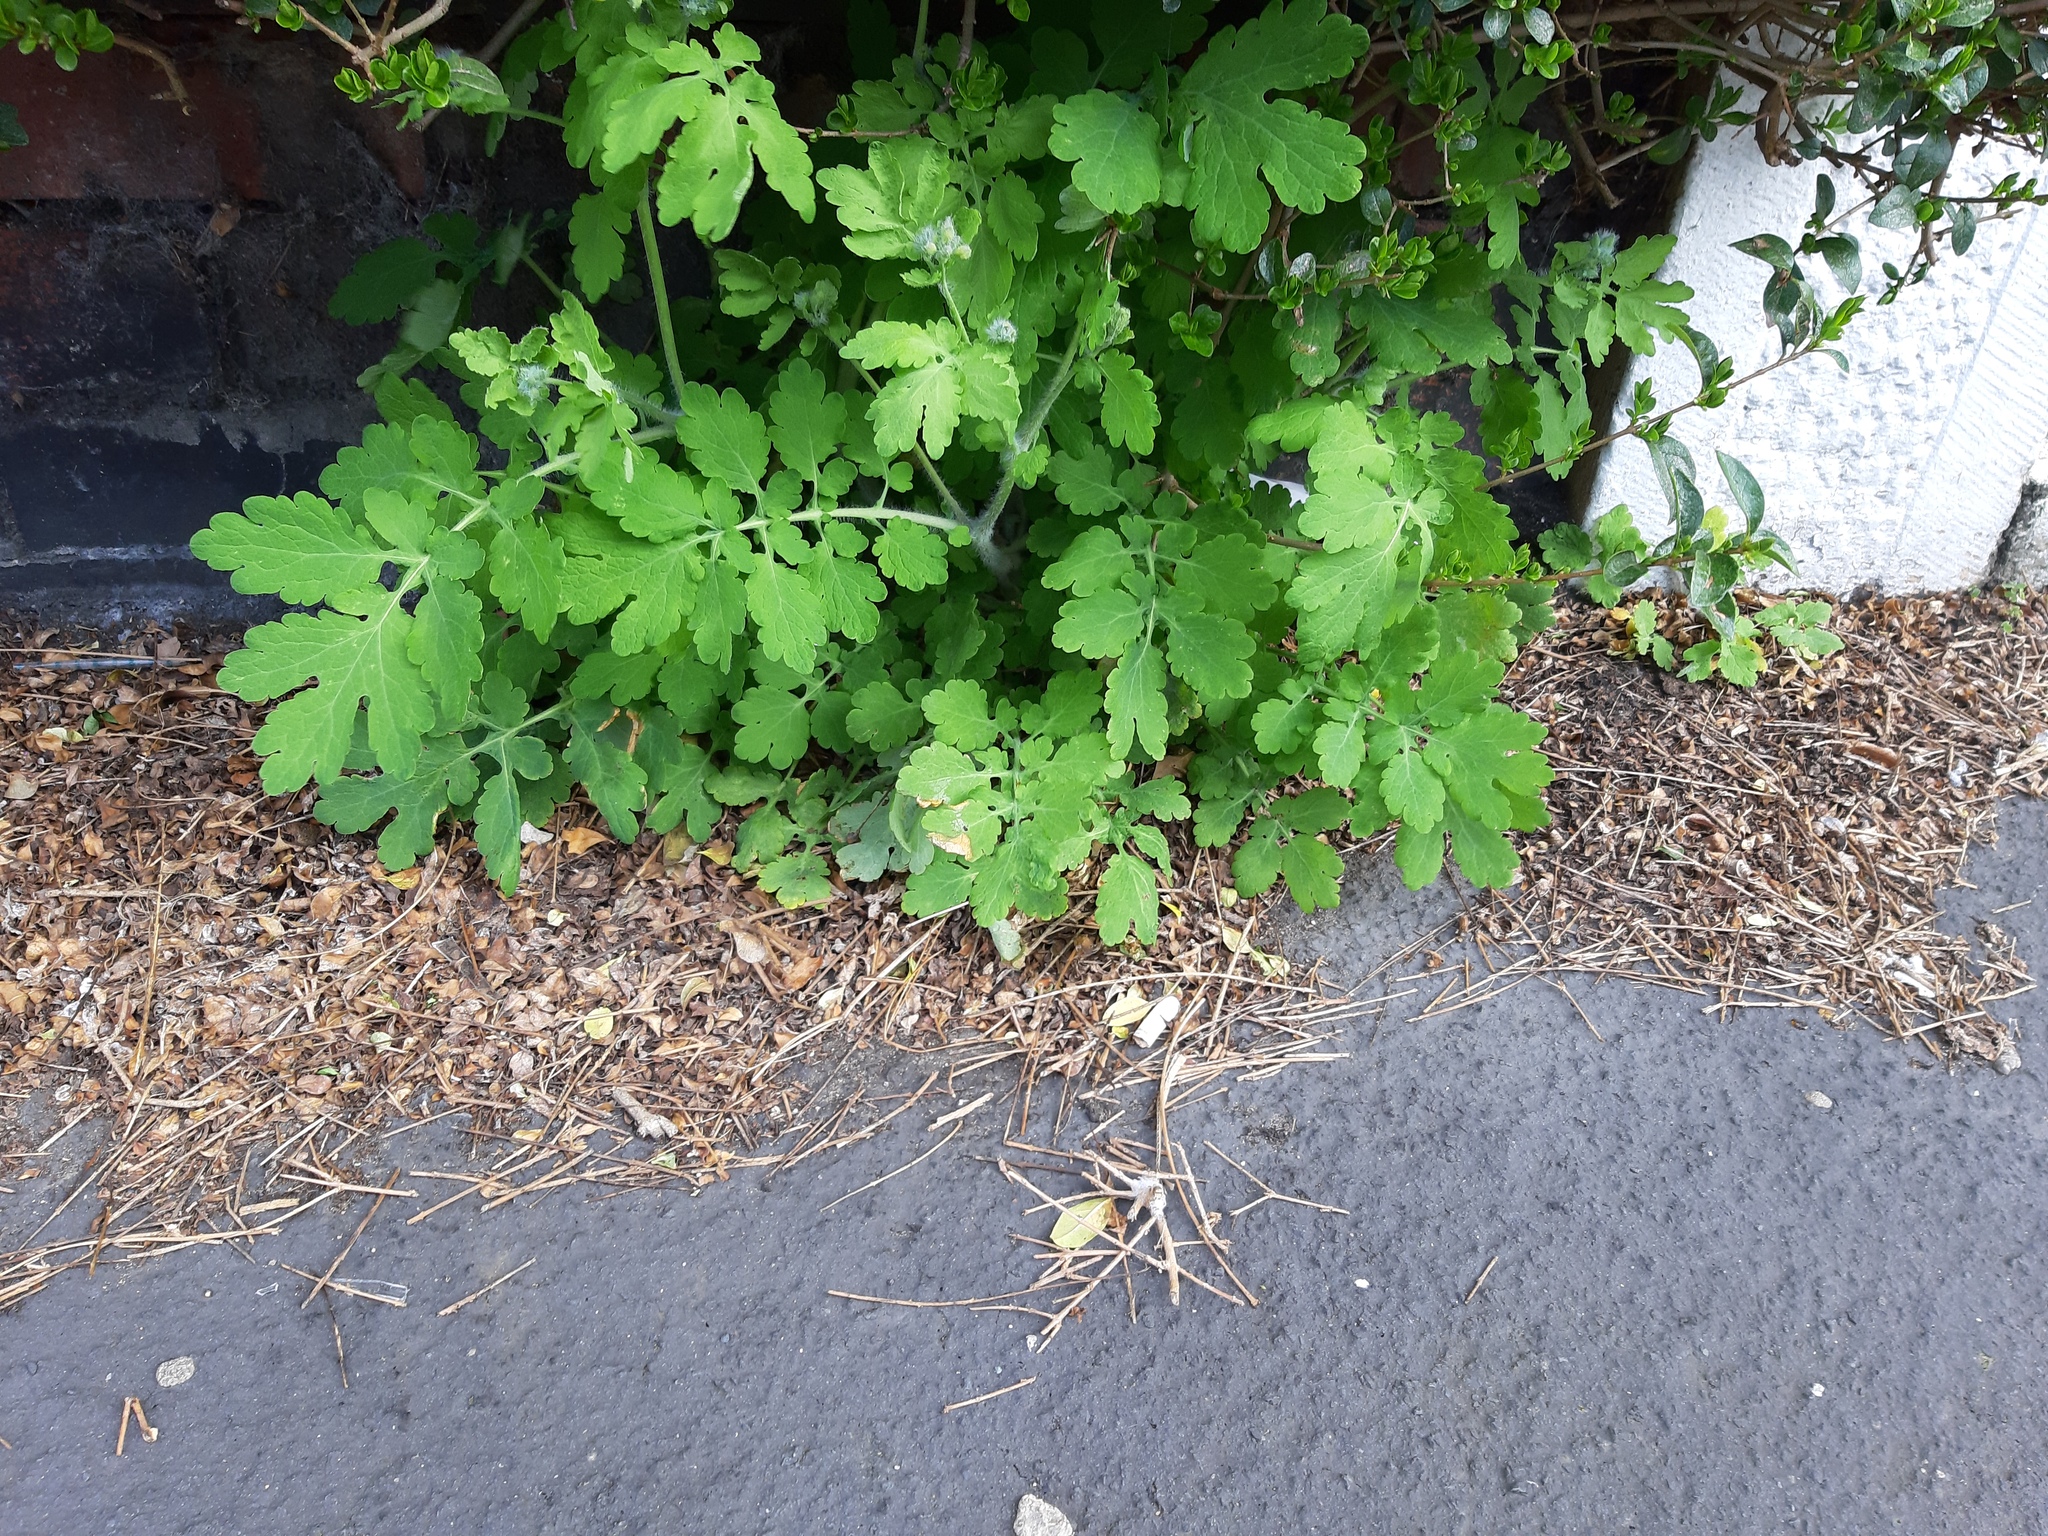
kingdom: Plantae
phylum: Tracheophyta
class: Magnoliopsida
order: Ranunculales
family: Papaveraceae
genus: Chelidonium
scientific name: Chelidonium majus
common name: Greater celandine
